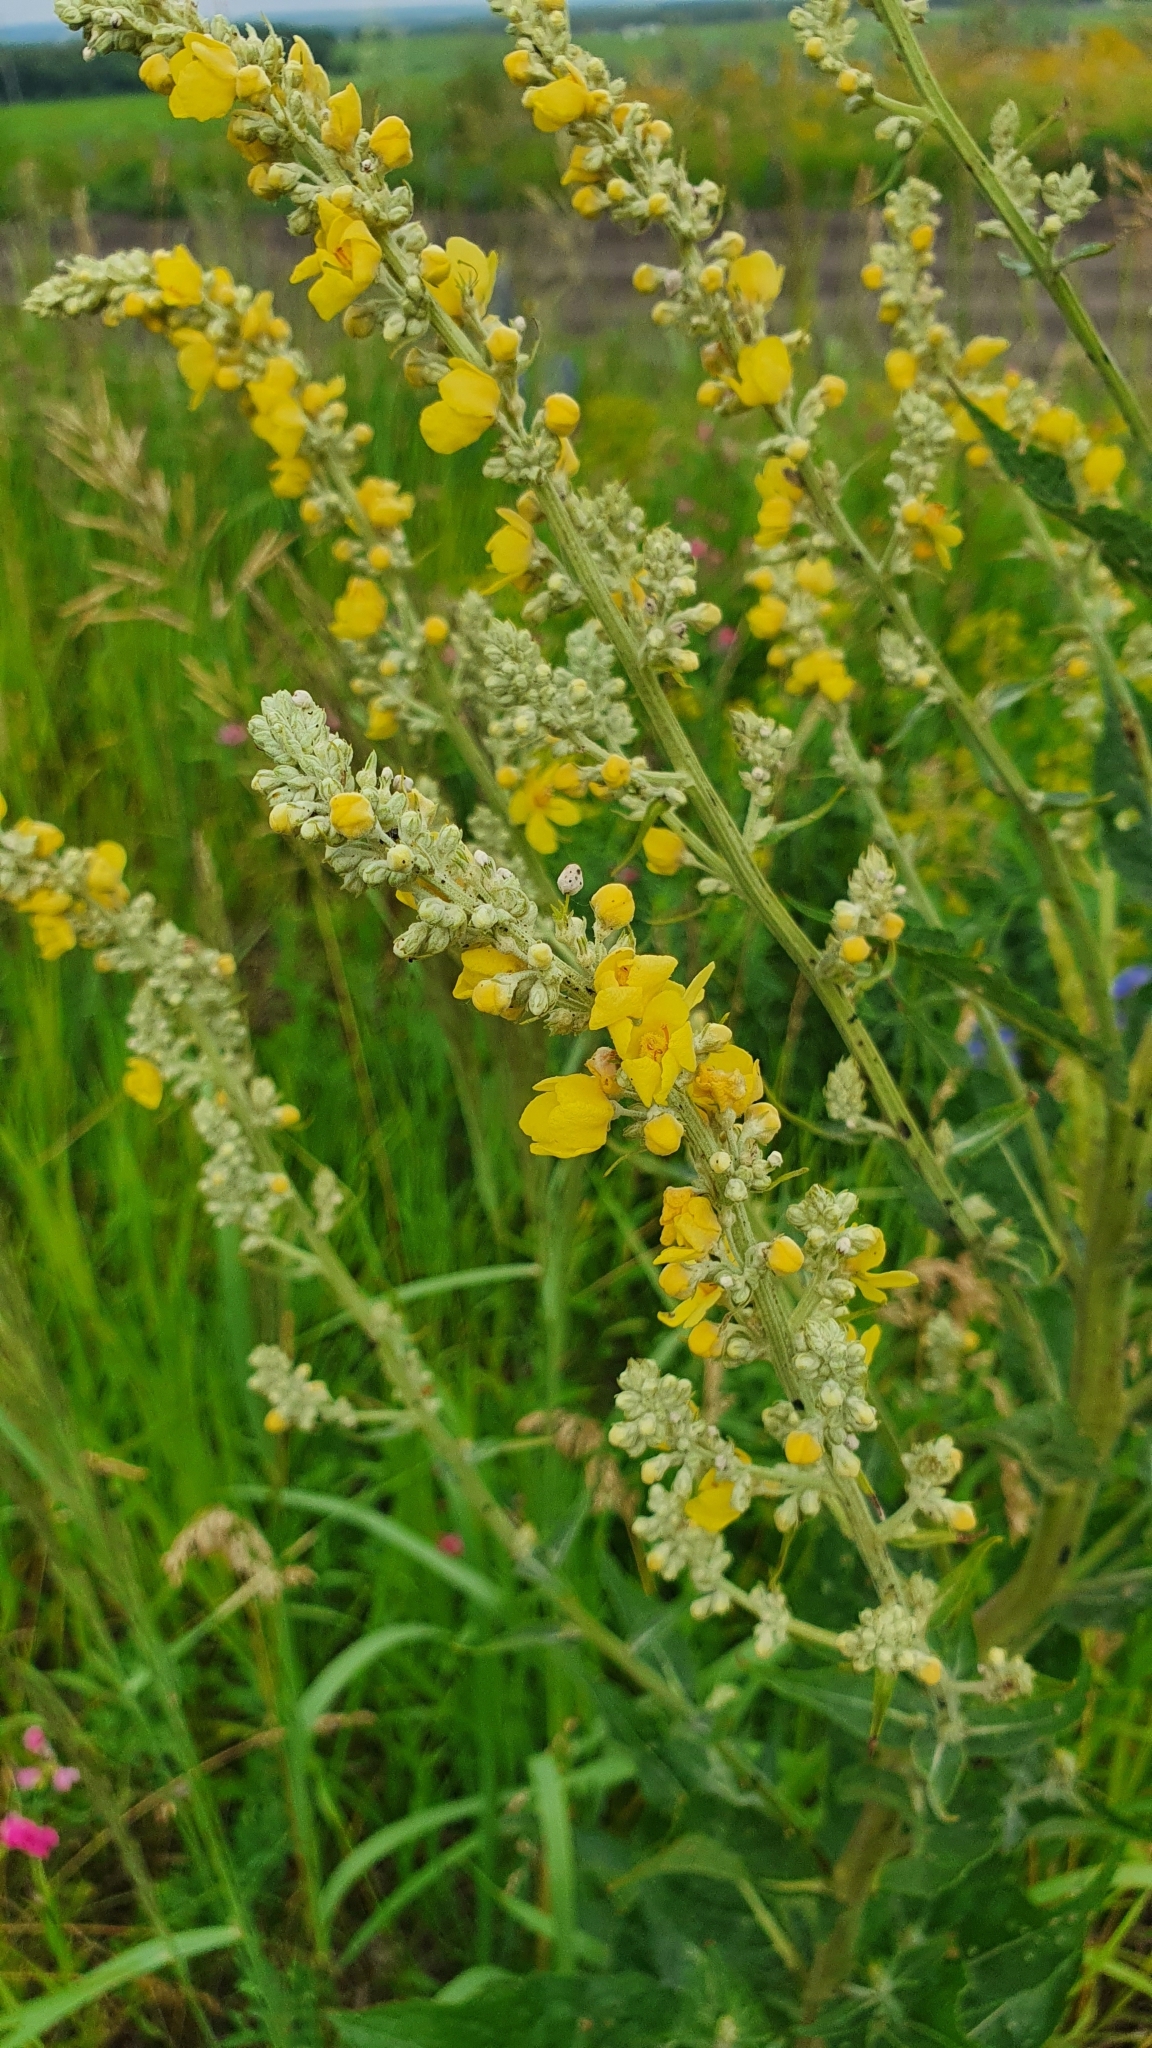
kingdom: Plantae
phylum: Tracheophyta
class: Magnoliopsida
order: Lamiales
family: Scrophulariaceae
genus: Verbascum
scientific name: Verbascum lychnitis
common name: White mullein
